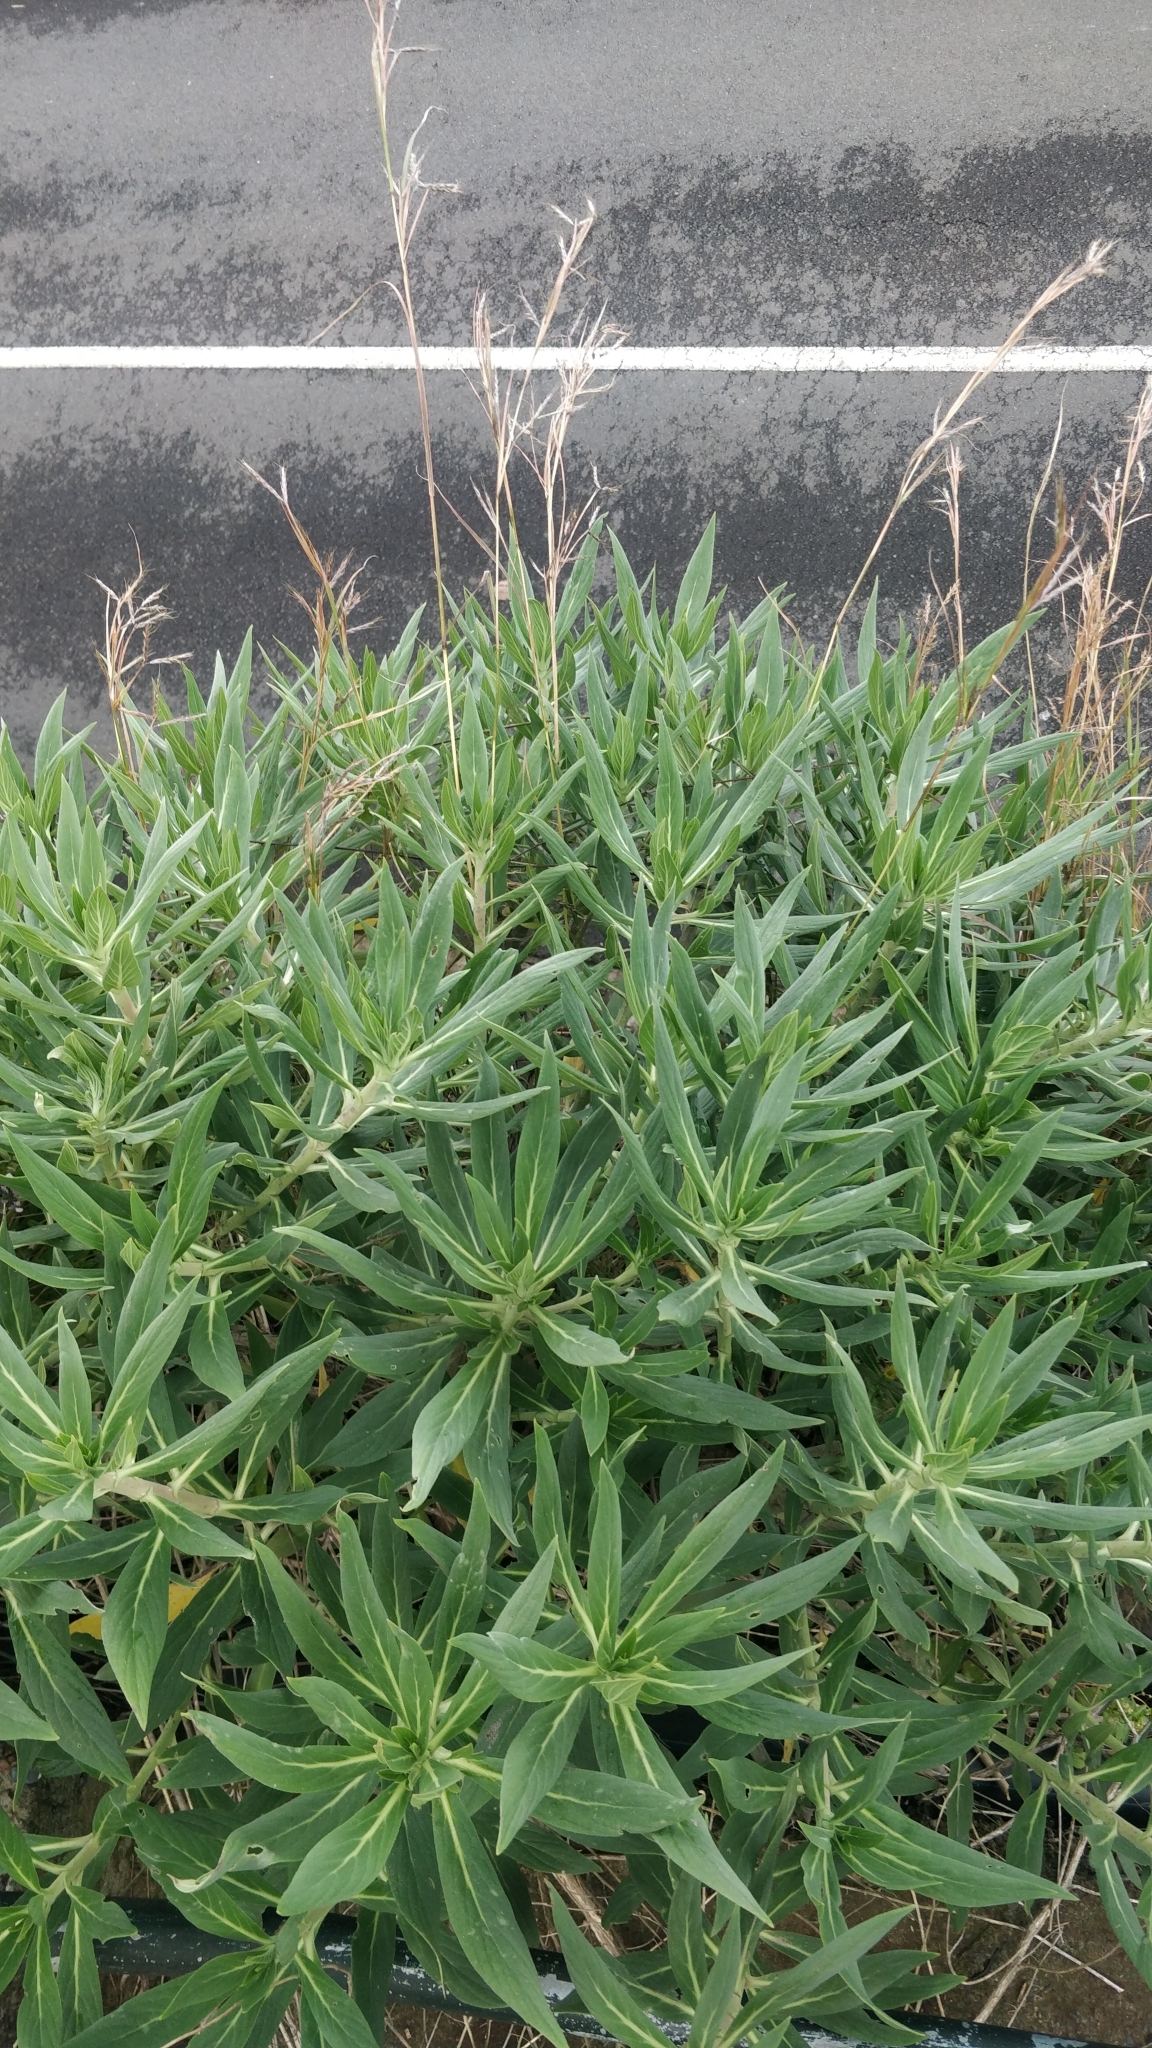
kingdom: Plantae
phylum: Tracheophyta
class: Magnoliopsida
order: Boraginales
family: Boraginaceae
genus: Echium
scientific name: Echium nervosum
